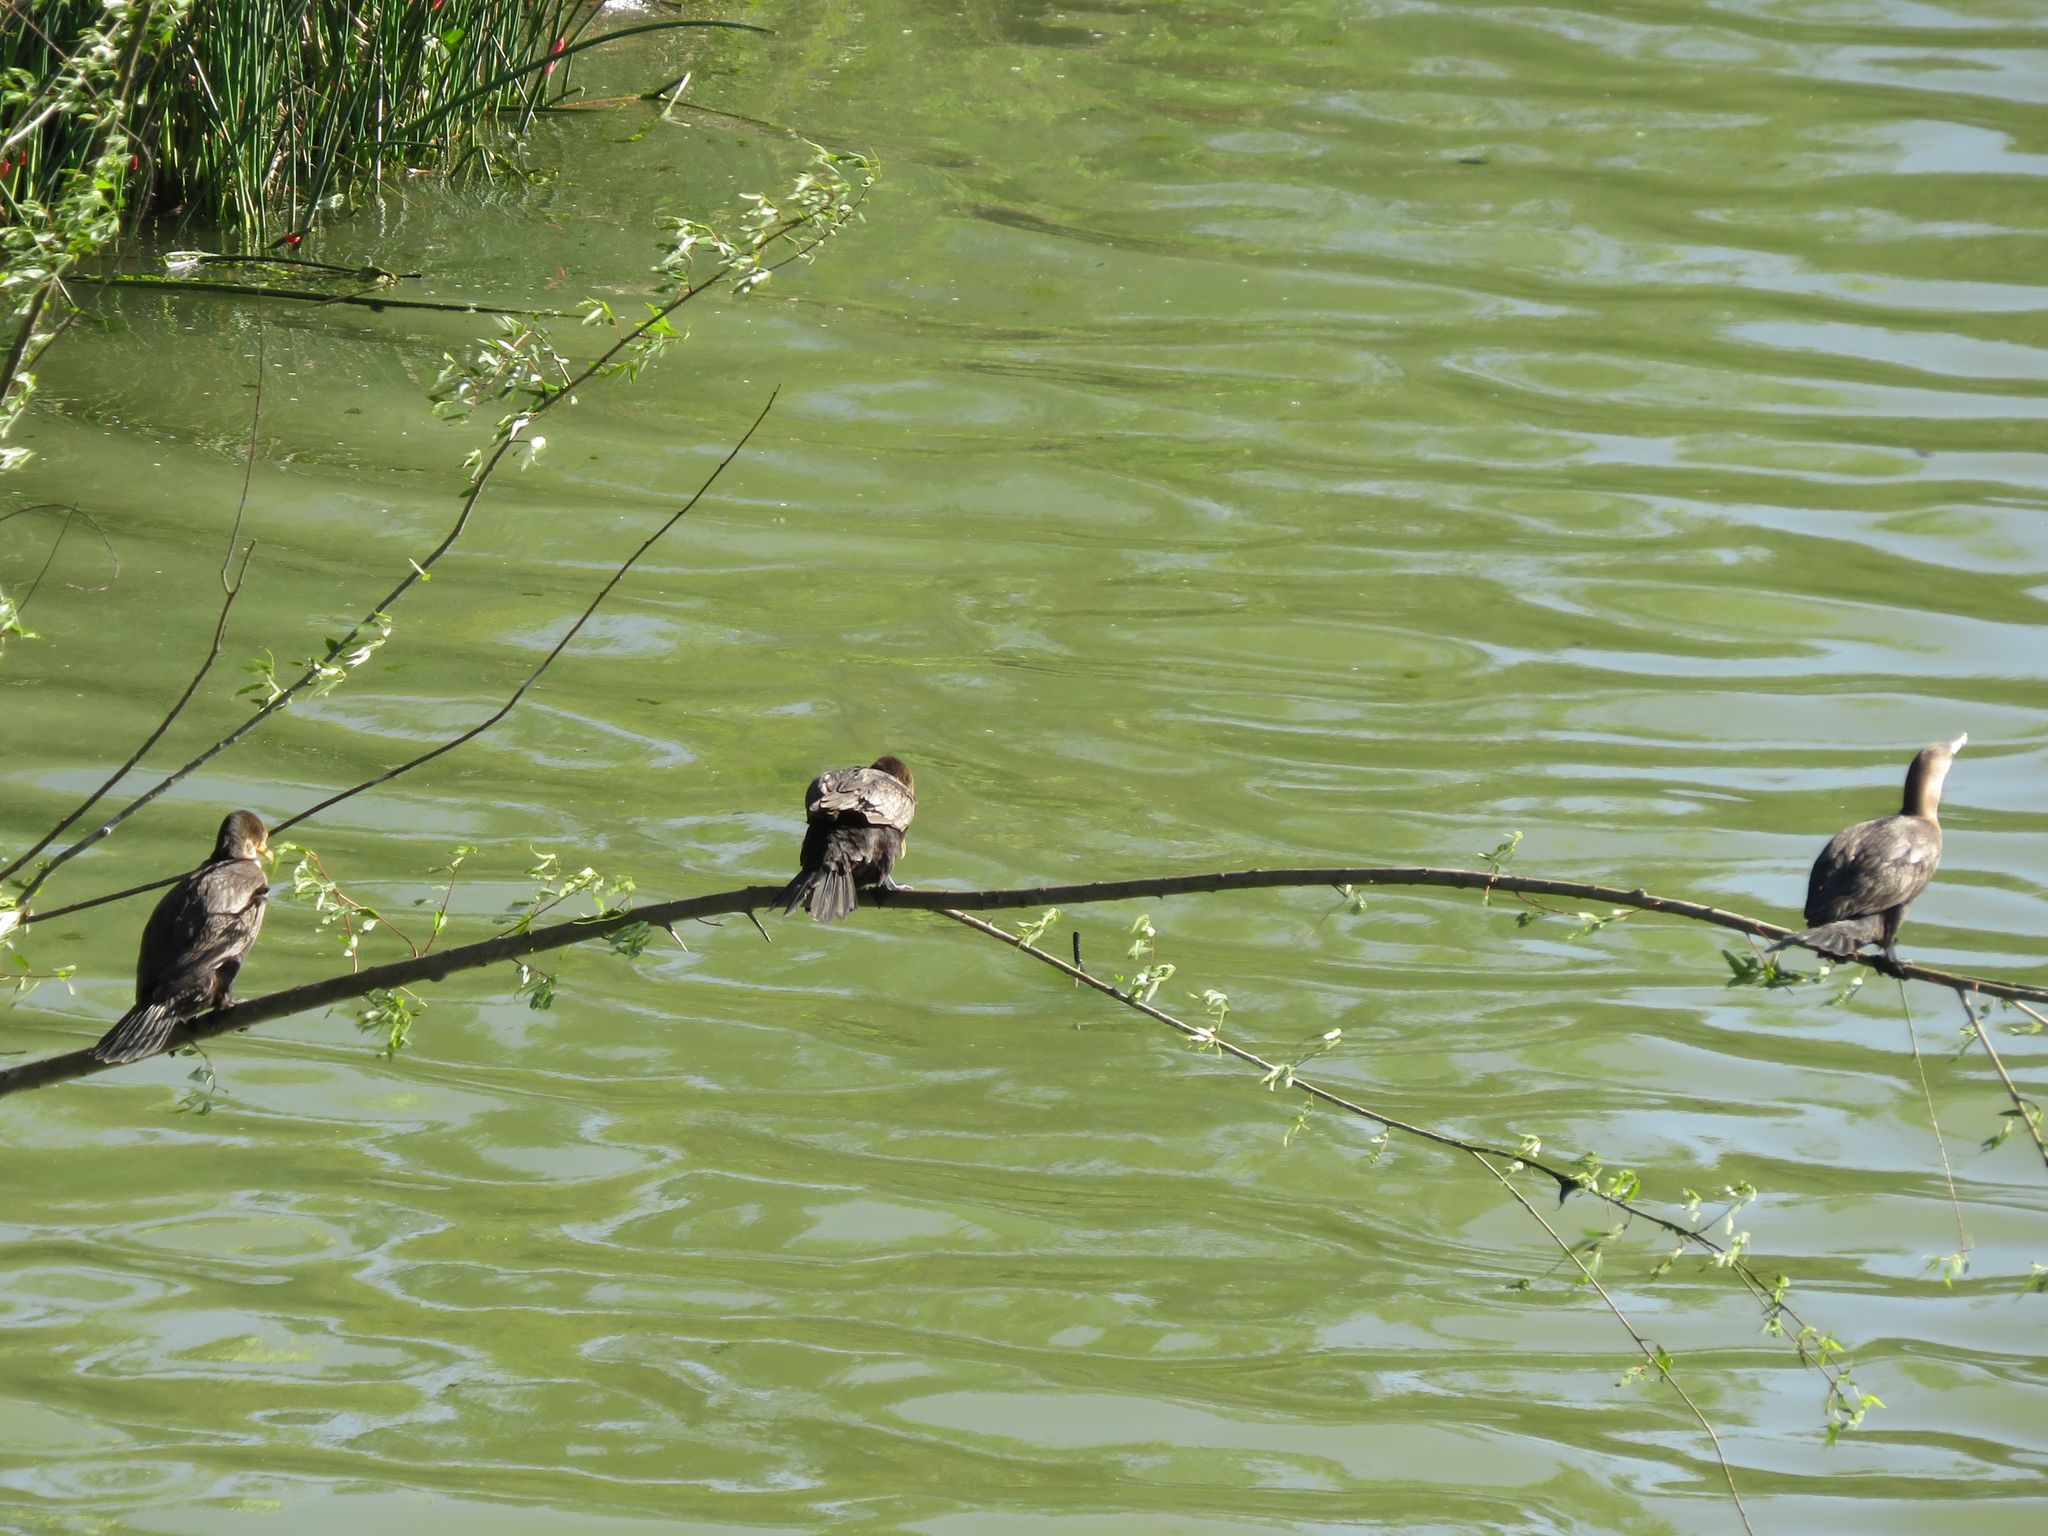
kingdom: Animalia
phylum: Chordata
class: Aves
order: Suliformes
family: Phalacrocoracidae
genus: Phalacrocorax
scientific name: Phalacrocorax brasilianus
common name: Neotropic cormorant
